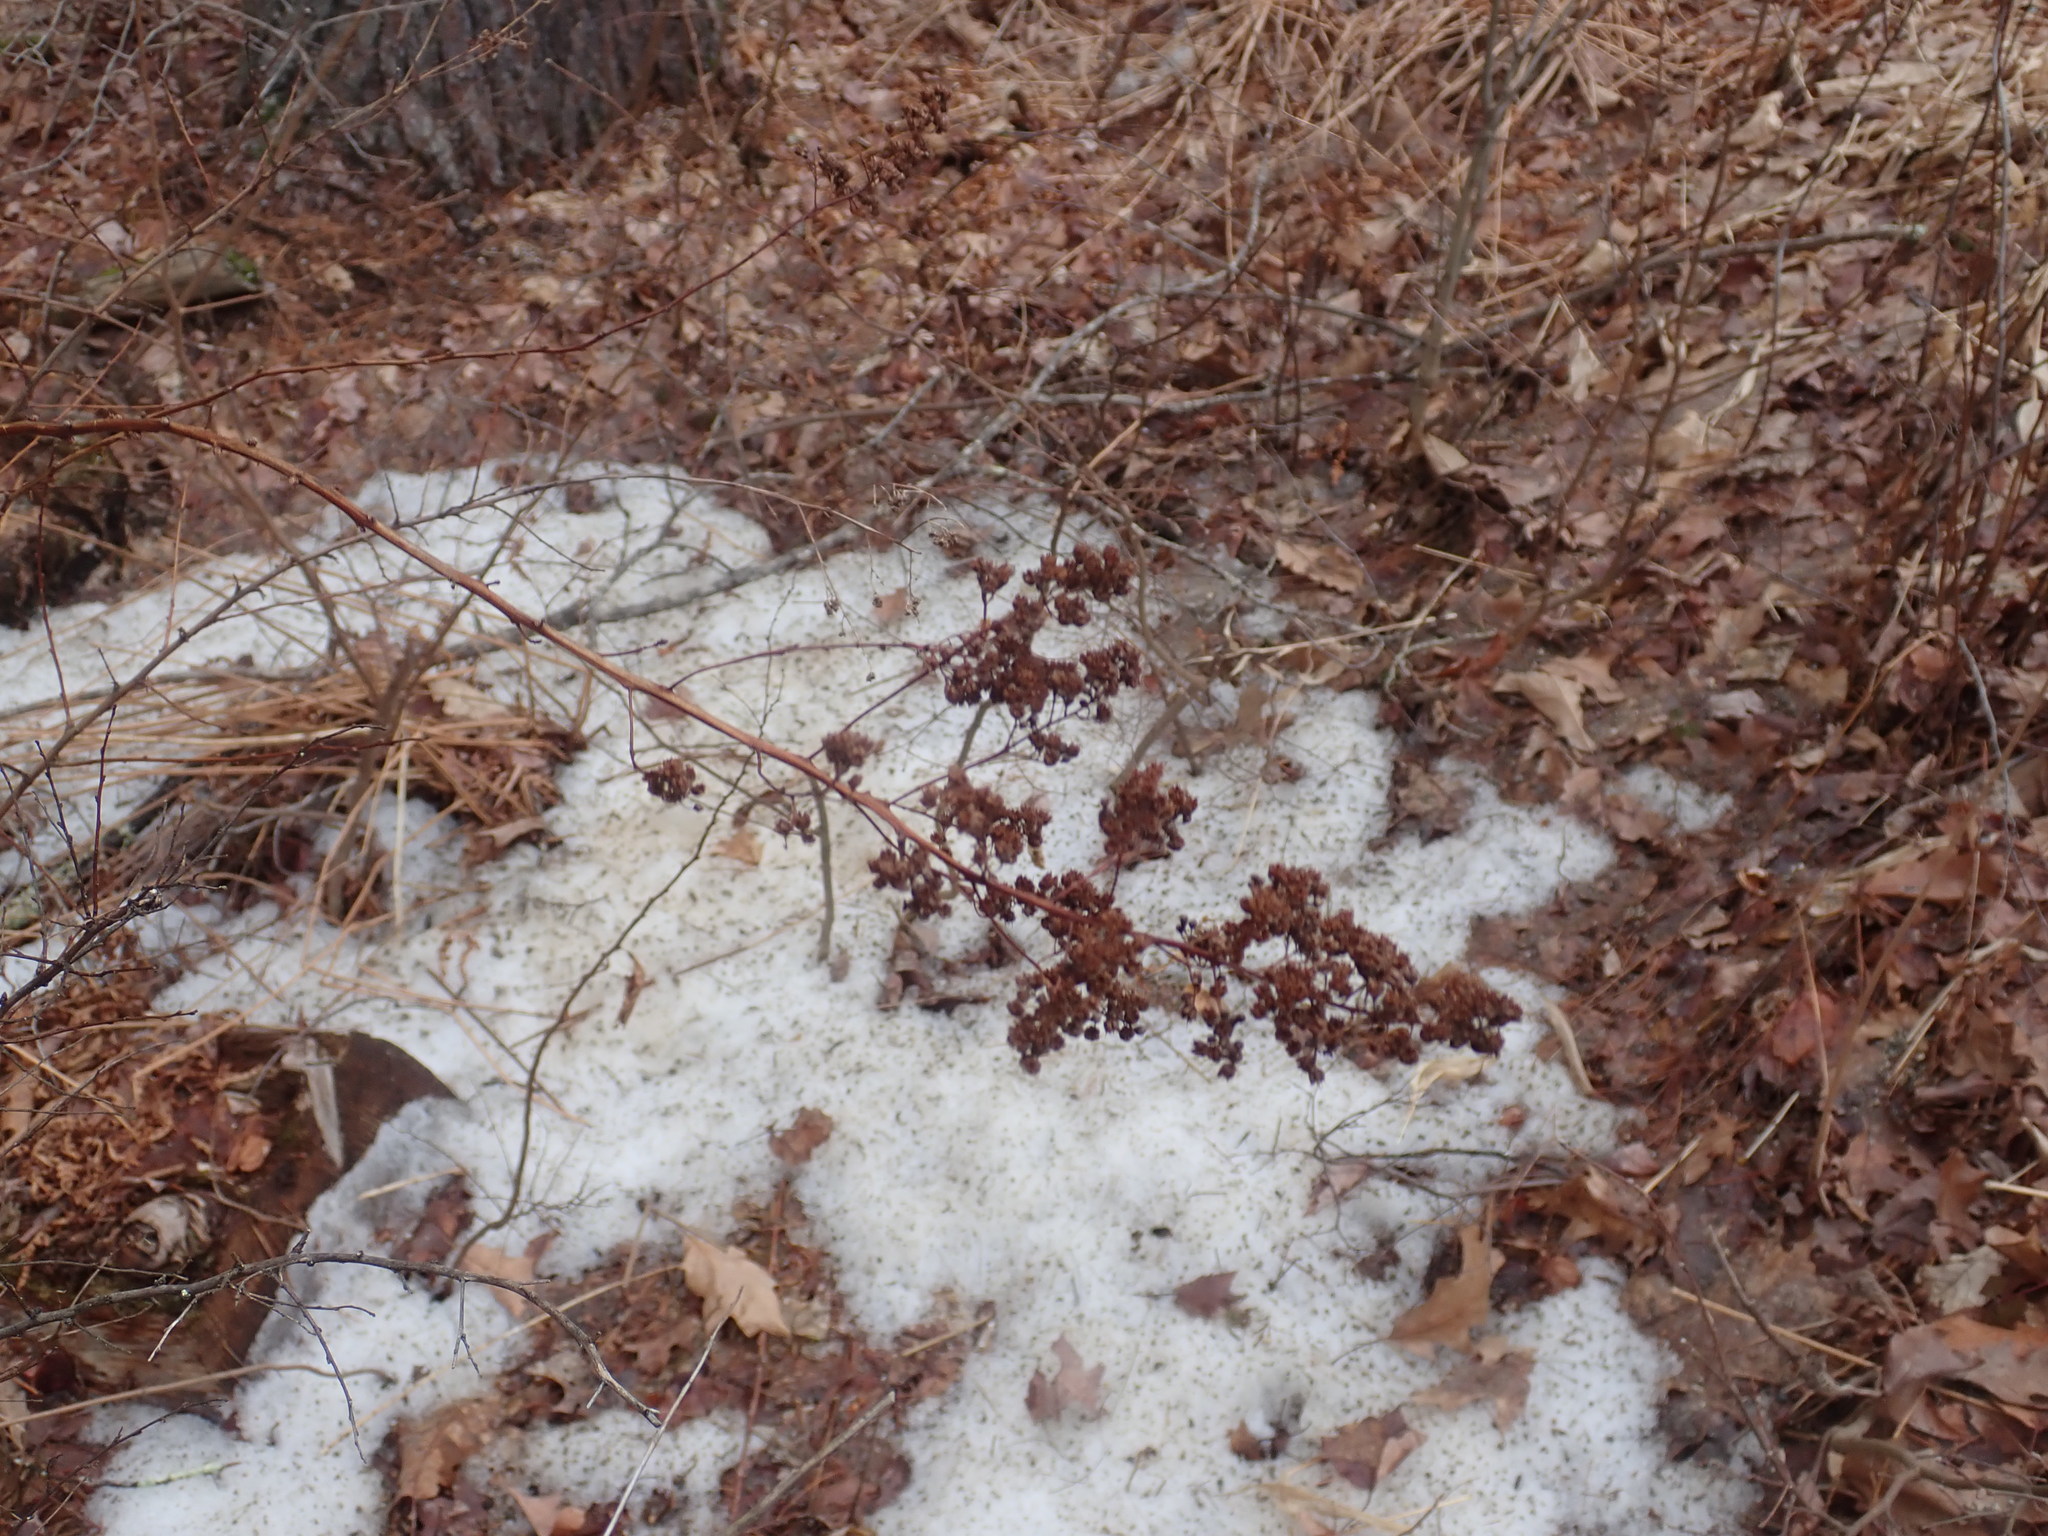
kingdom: Plantae
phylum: Tracheophyta
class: Magnoliopsida
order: Rosales
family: Rosaceae
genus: Spiraea
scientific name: Spiraea alba
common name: Pale bridewort
